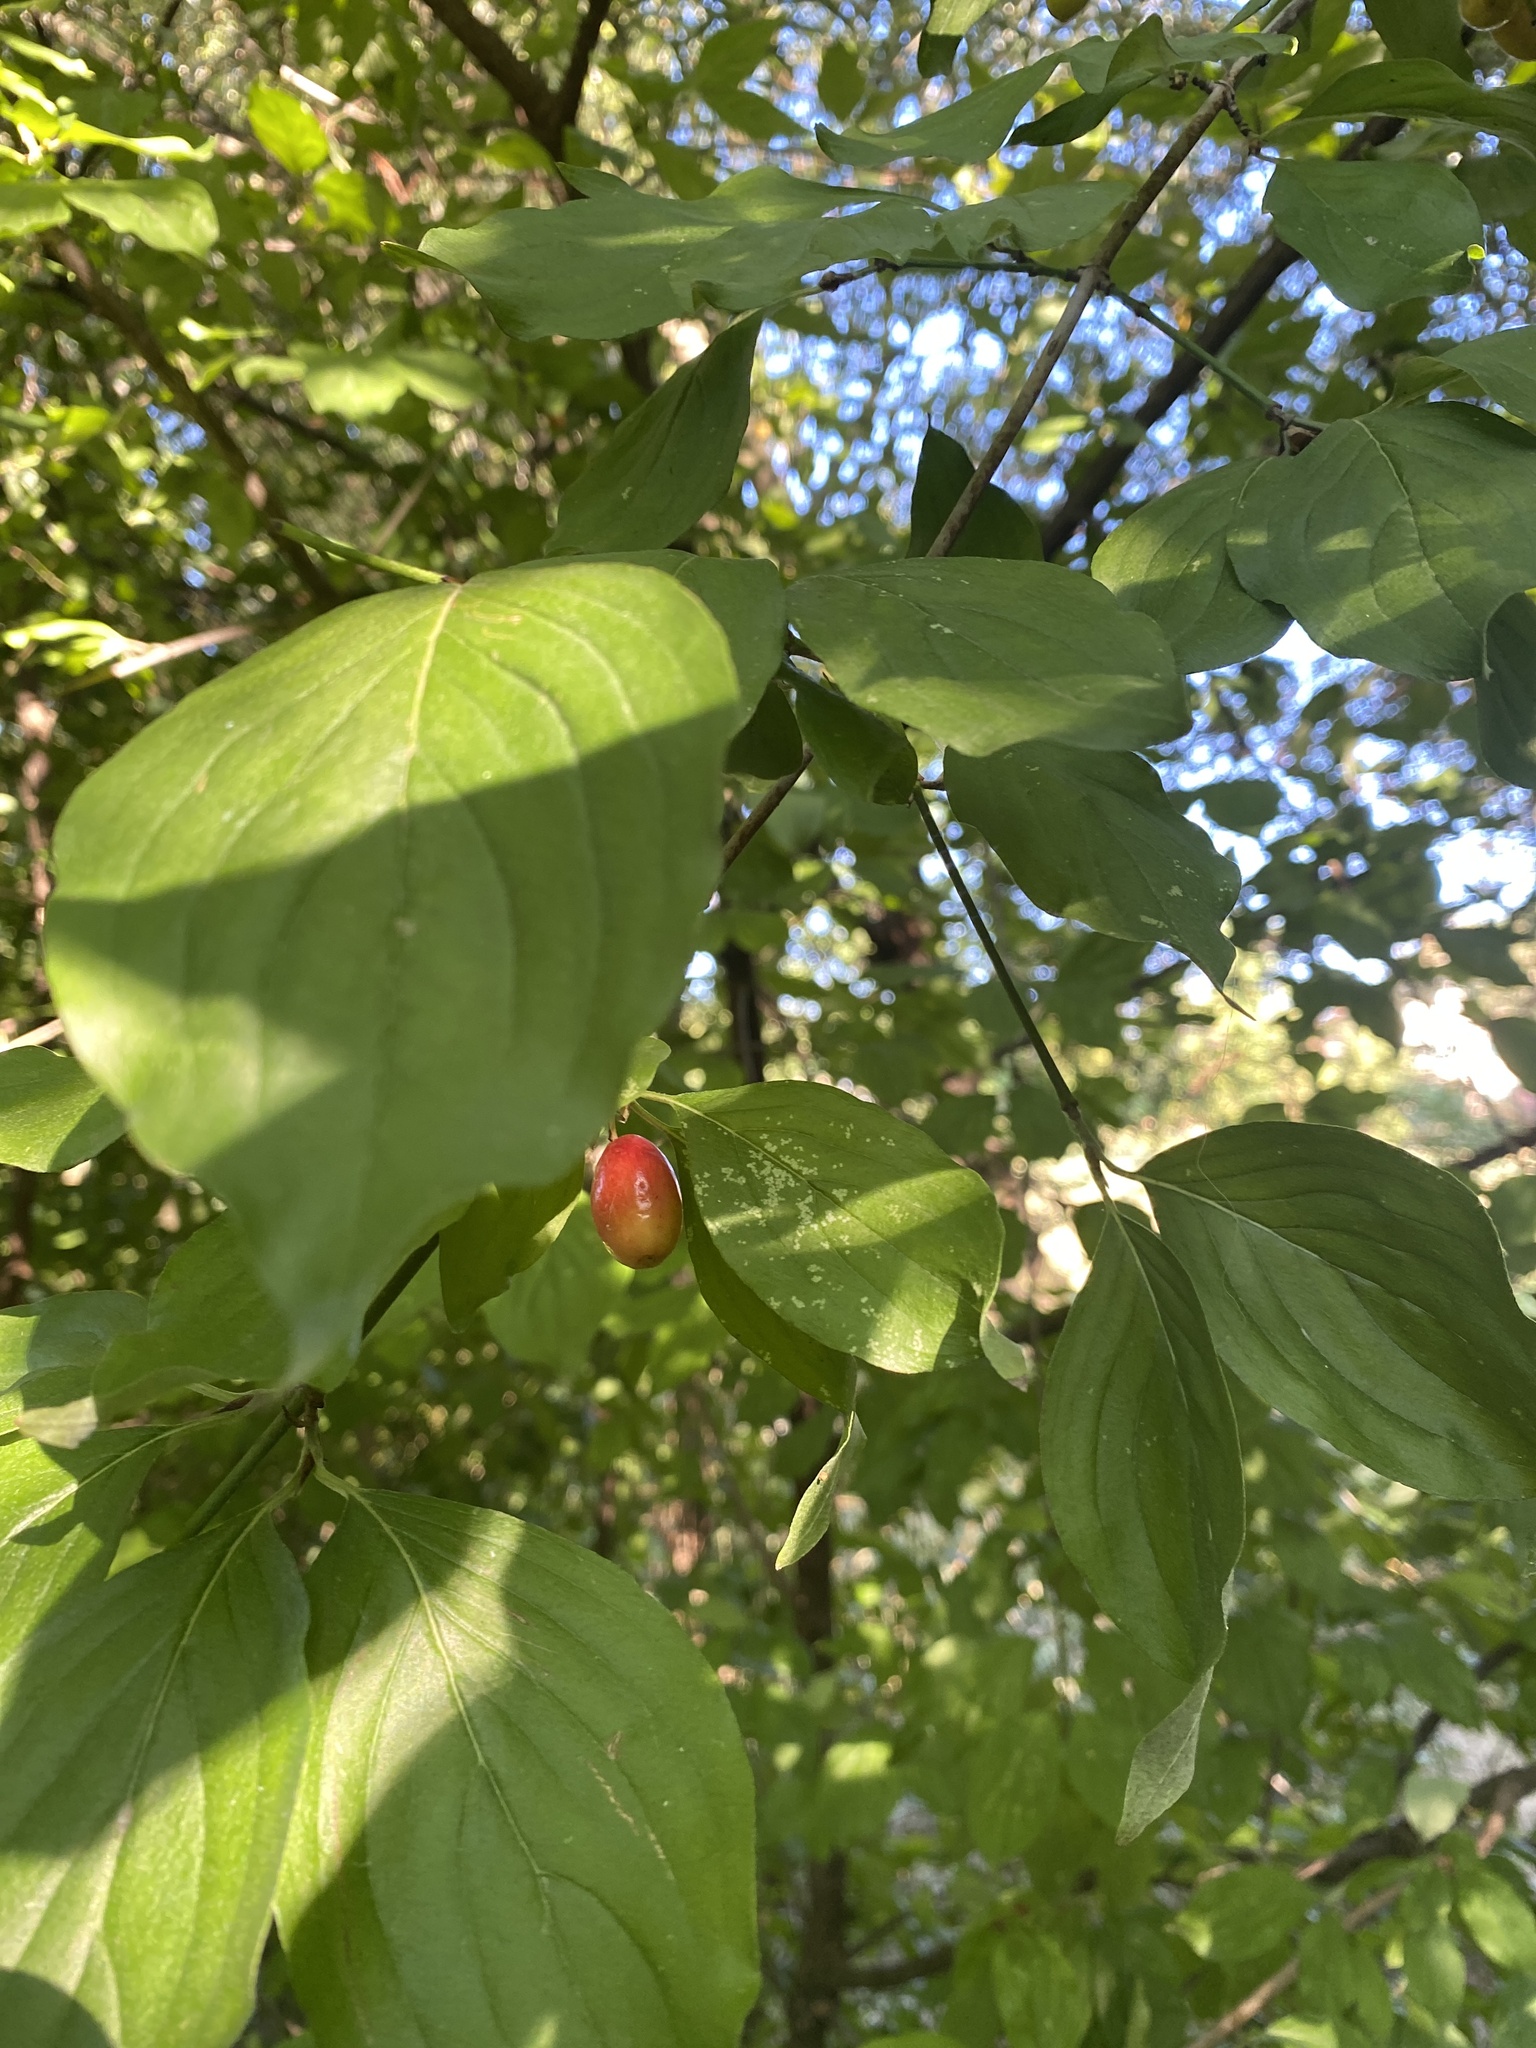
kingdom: Plantae
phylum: Tracheophyta
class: Magnoliopsida
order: Cornales
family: Cornaceae
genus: Cornus
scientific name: Cornus mas
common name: Cornelian-cherry
